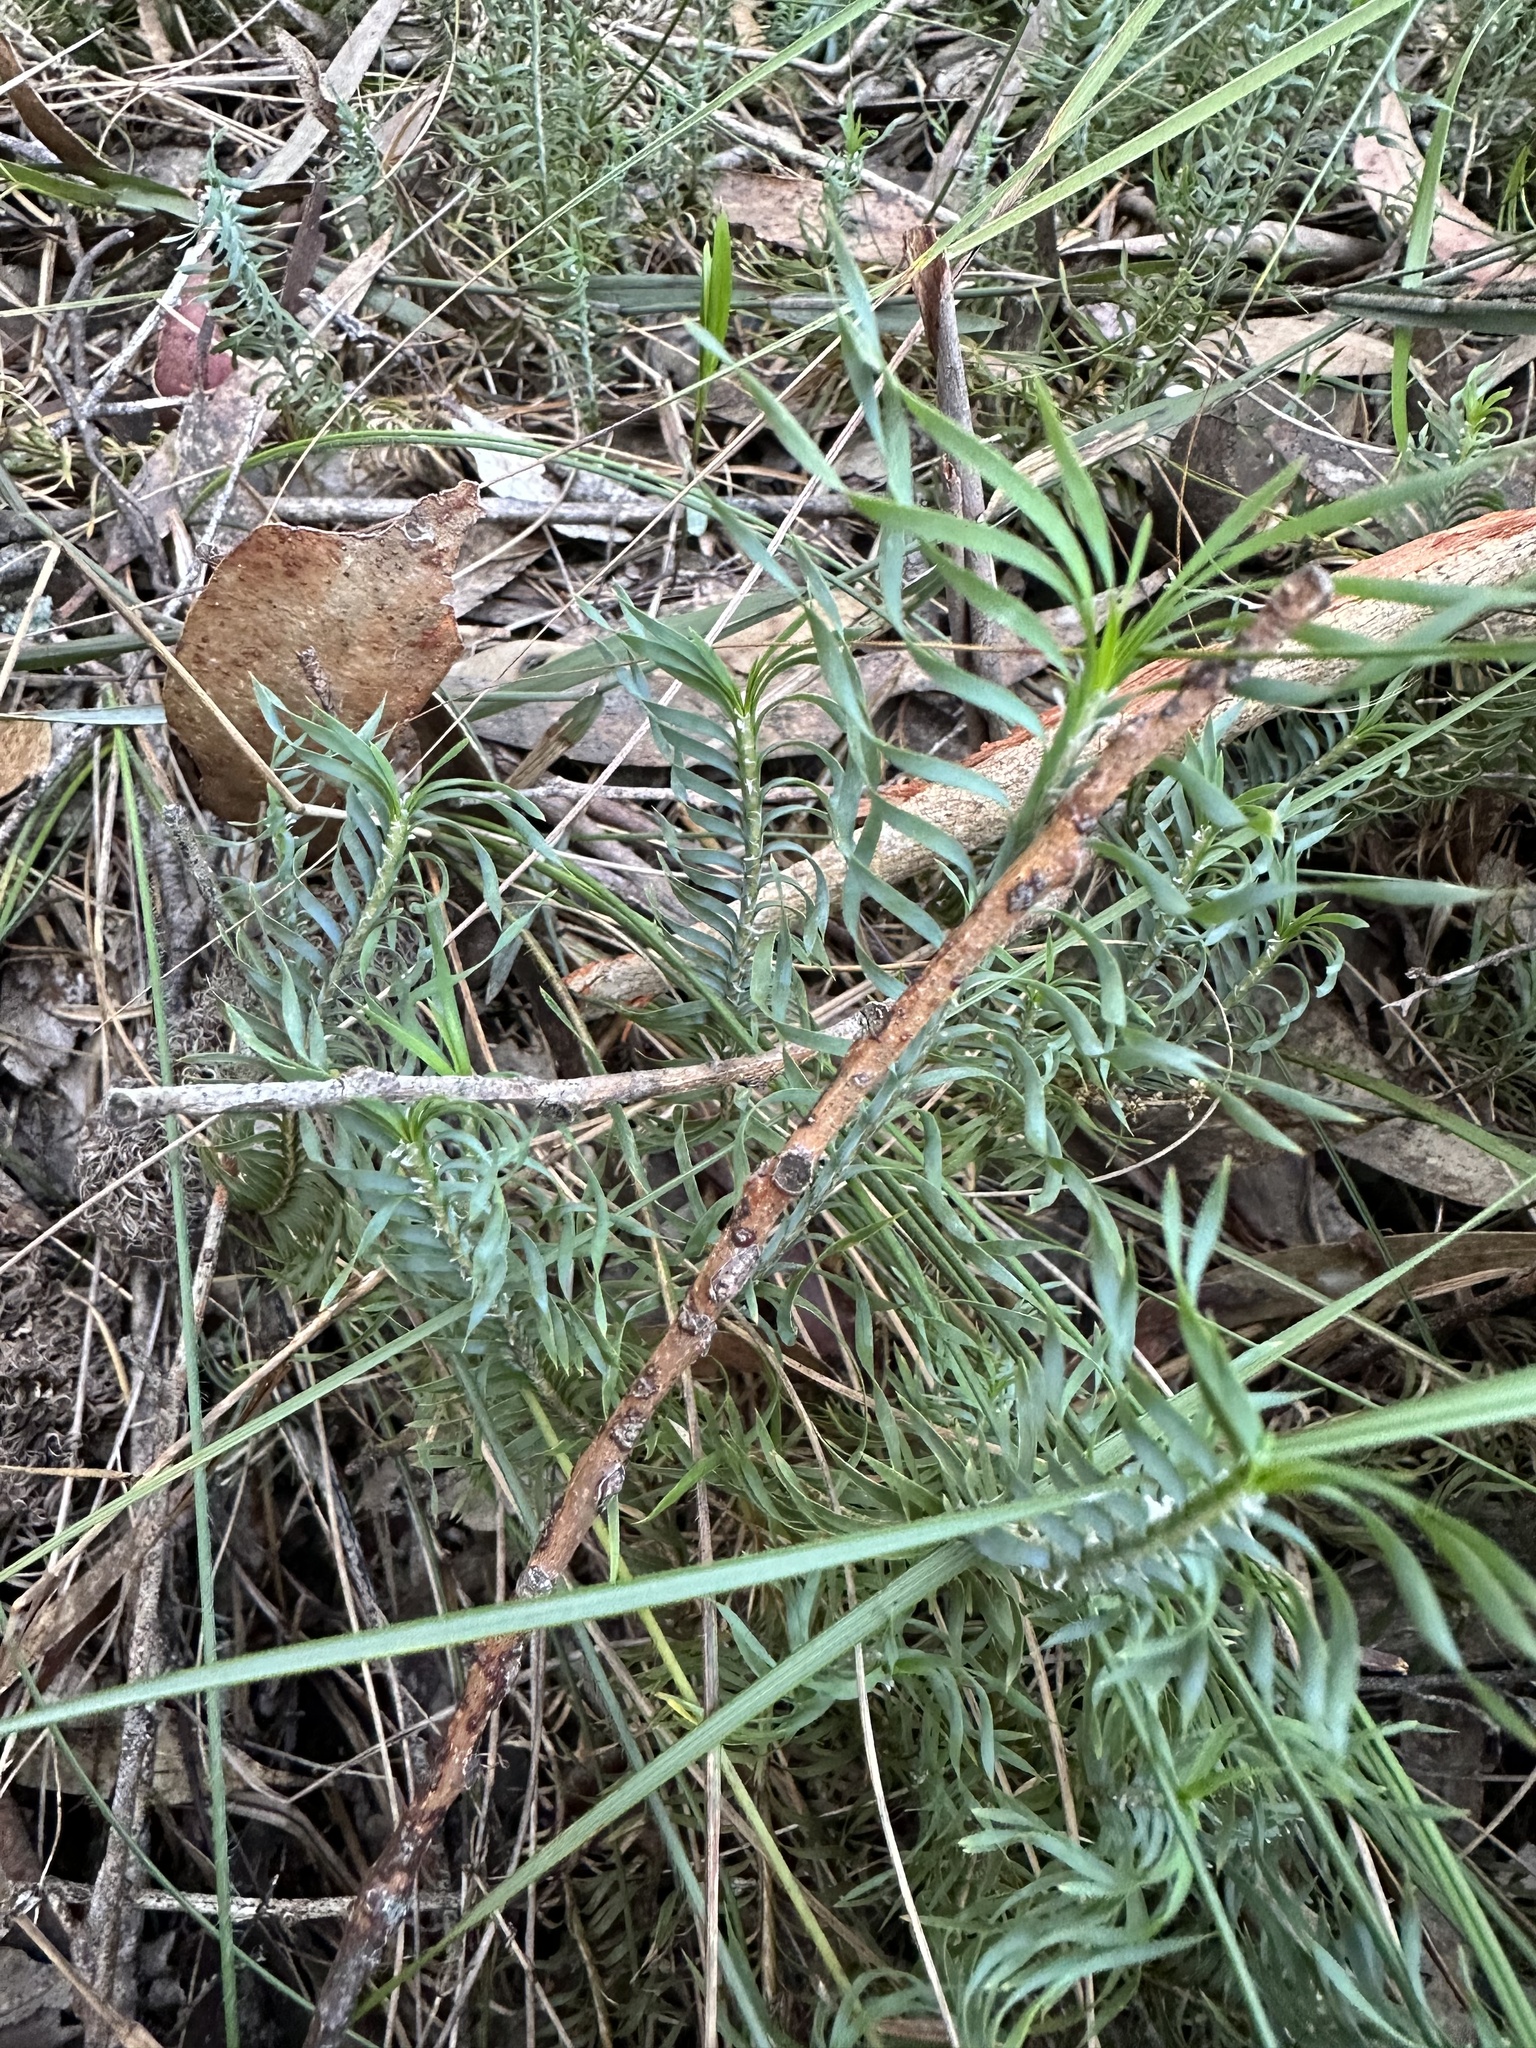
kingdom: Plantae
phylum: Tracheophyta
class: Liliopsida
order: Asparagales
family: Asparagaceae
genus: Lomandra
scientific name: Lomandra obliqua
